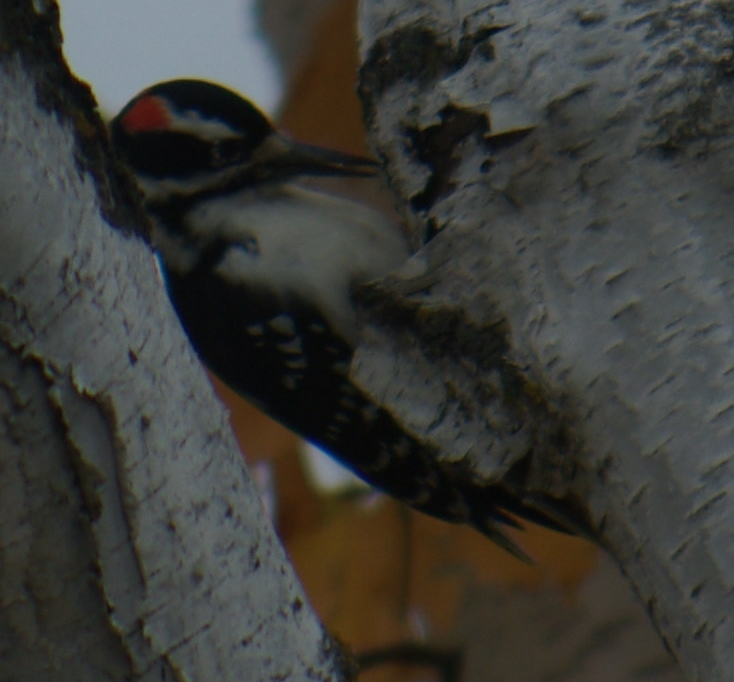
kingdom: Animalia
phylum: Chordata
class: Aves
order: Piciformes
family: Picidae
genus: Leuconotopicus
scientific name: Leuconotopicus villosus
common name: Hairy woodpecker
